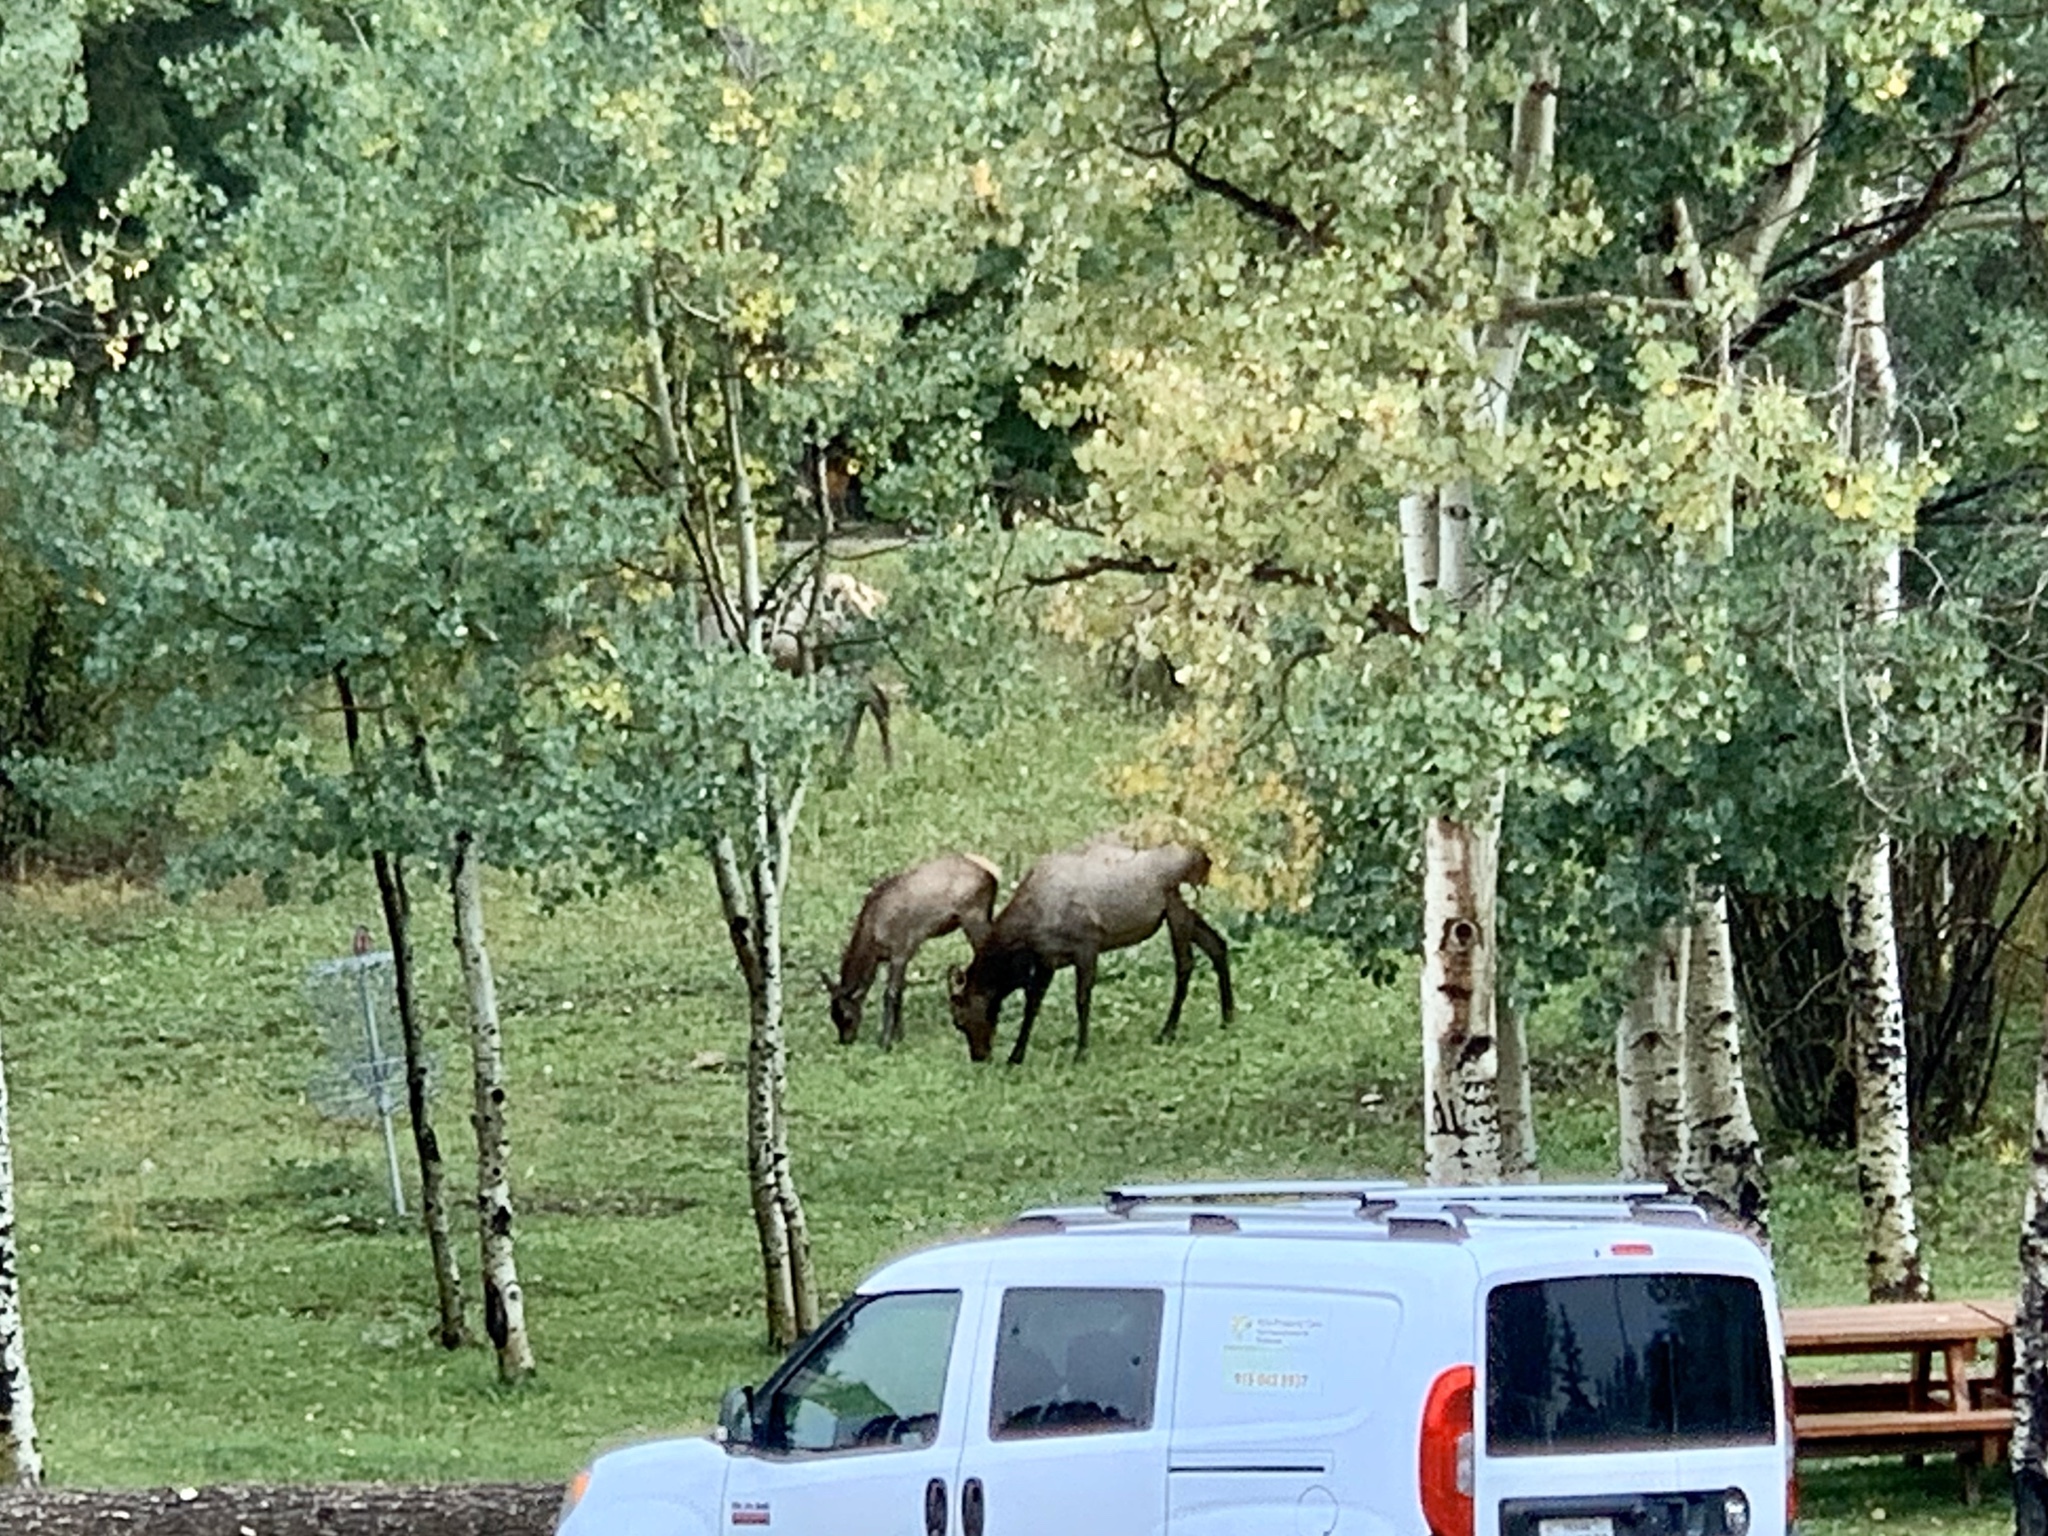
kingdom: Animalia
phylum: Chordata
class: Mammalia
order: Artiodactyla
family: Cervidae
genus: Cervus
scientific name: Cervus elaphus
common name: Red deer
